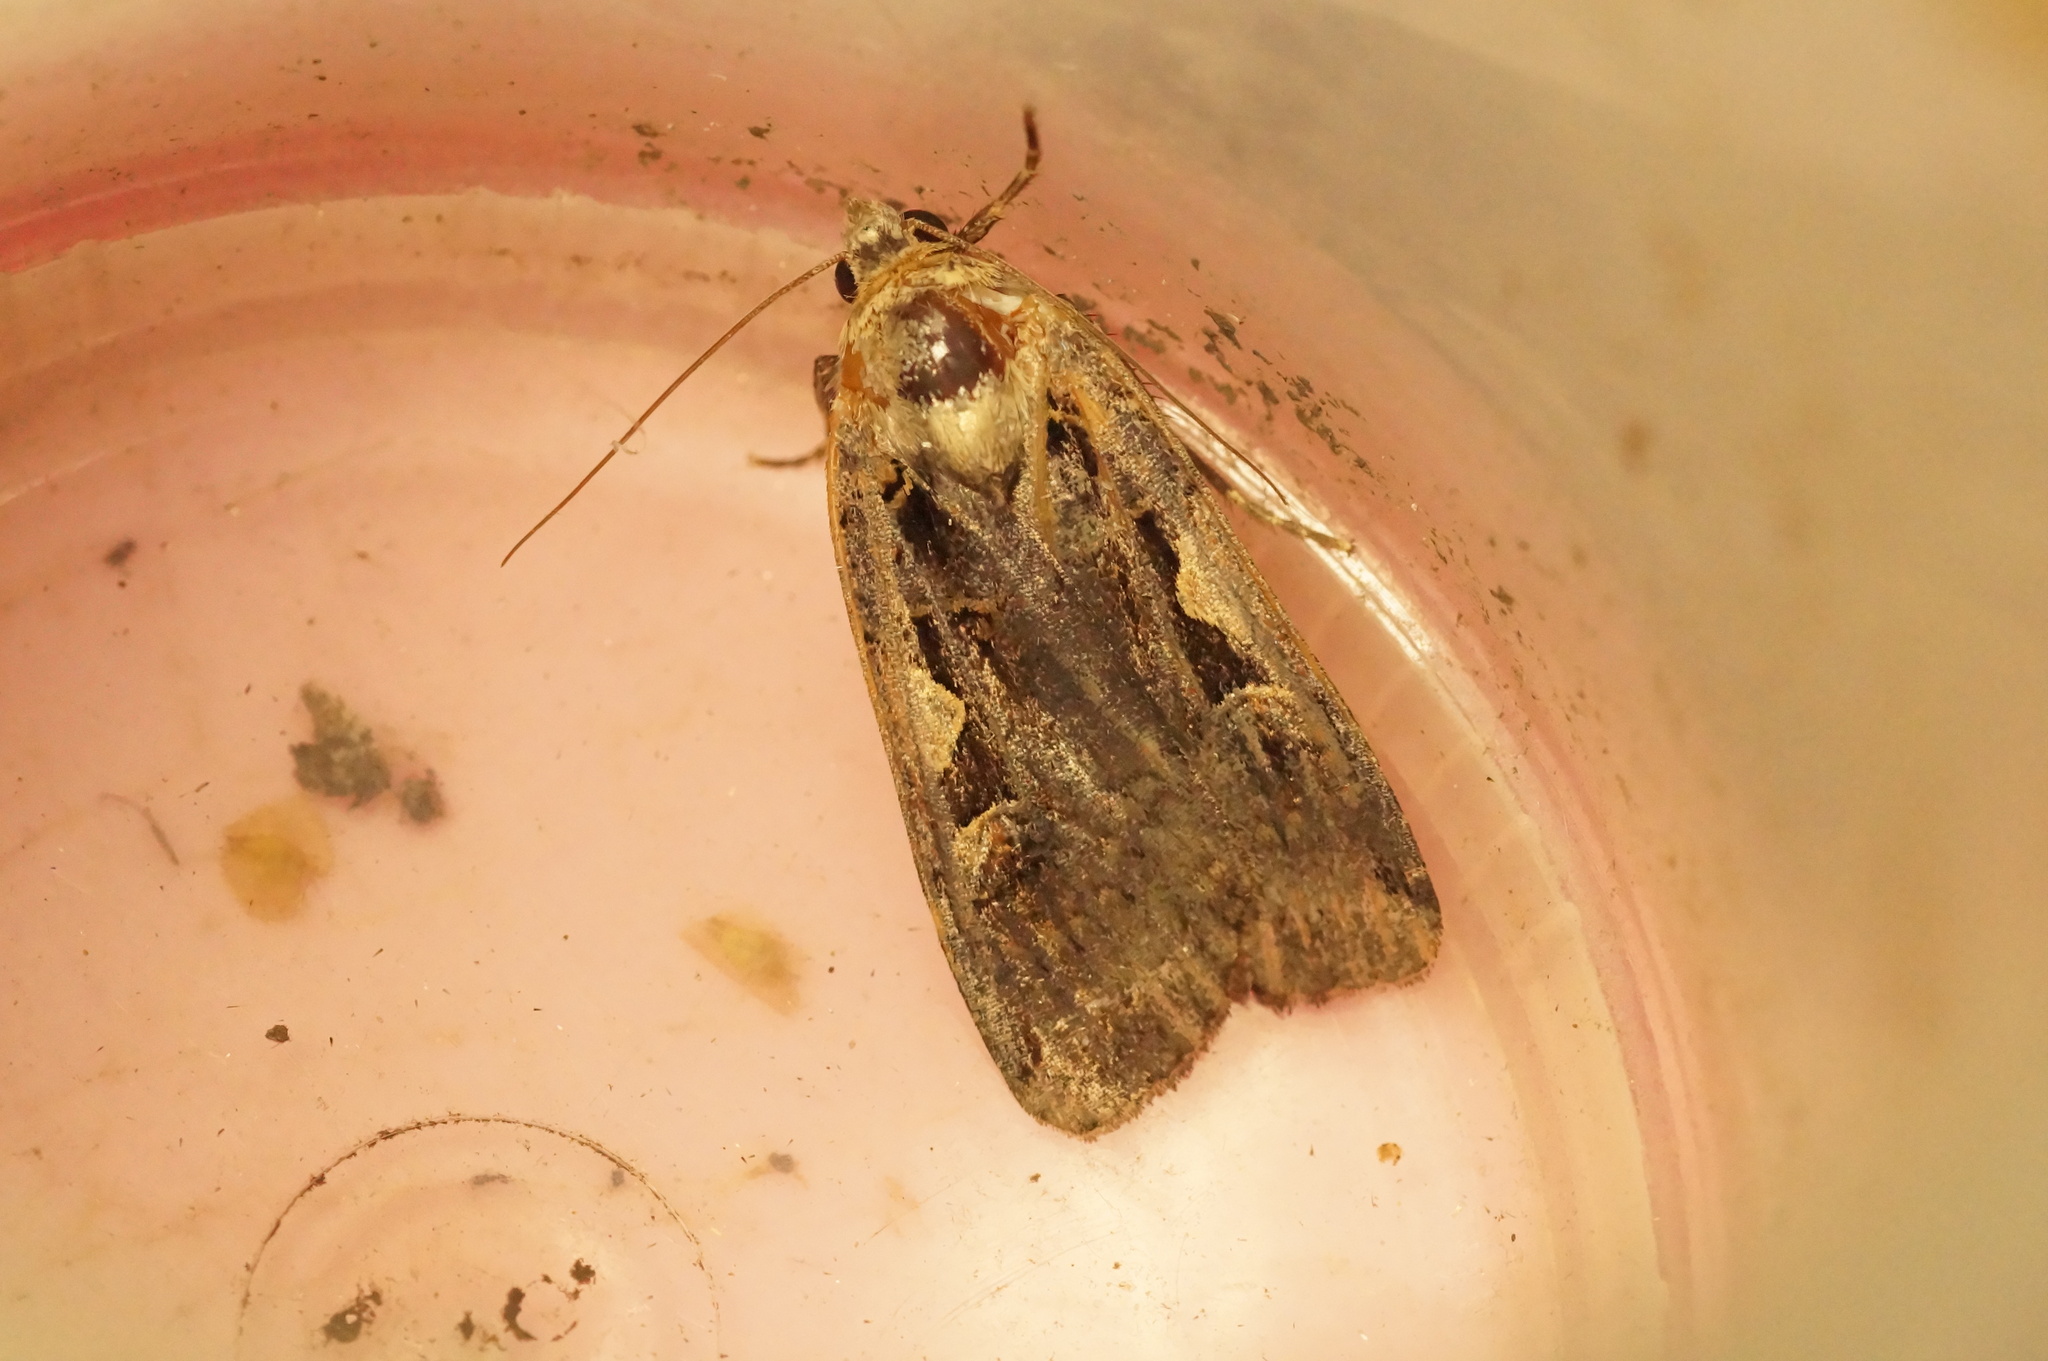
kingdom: Animalia
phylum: Arthropoda
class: Insecta
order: Lepidoptera
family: Noctuidae
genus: Xestia
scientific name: Xestia c-nigrum
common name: Setaceous hebrew character
